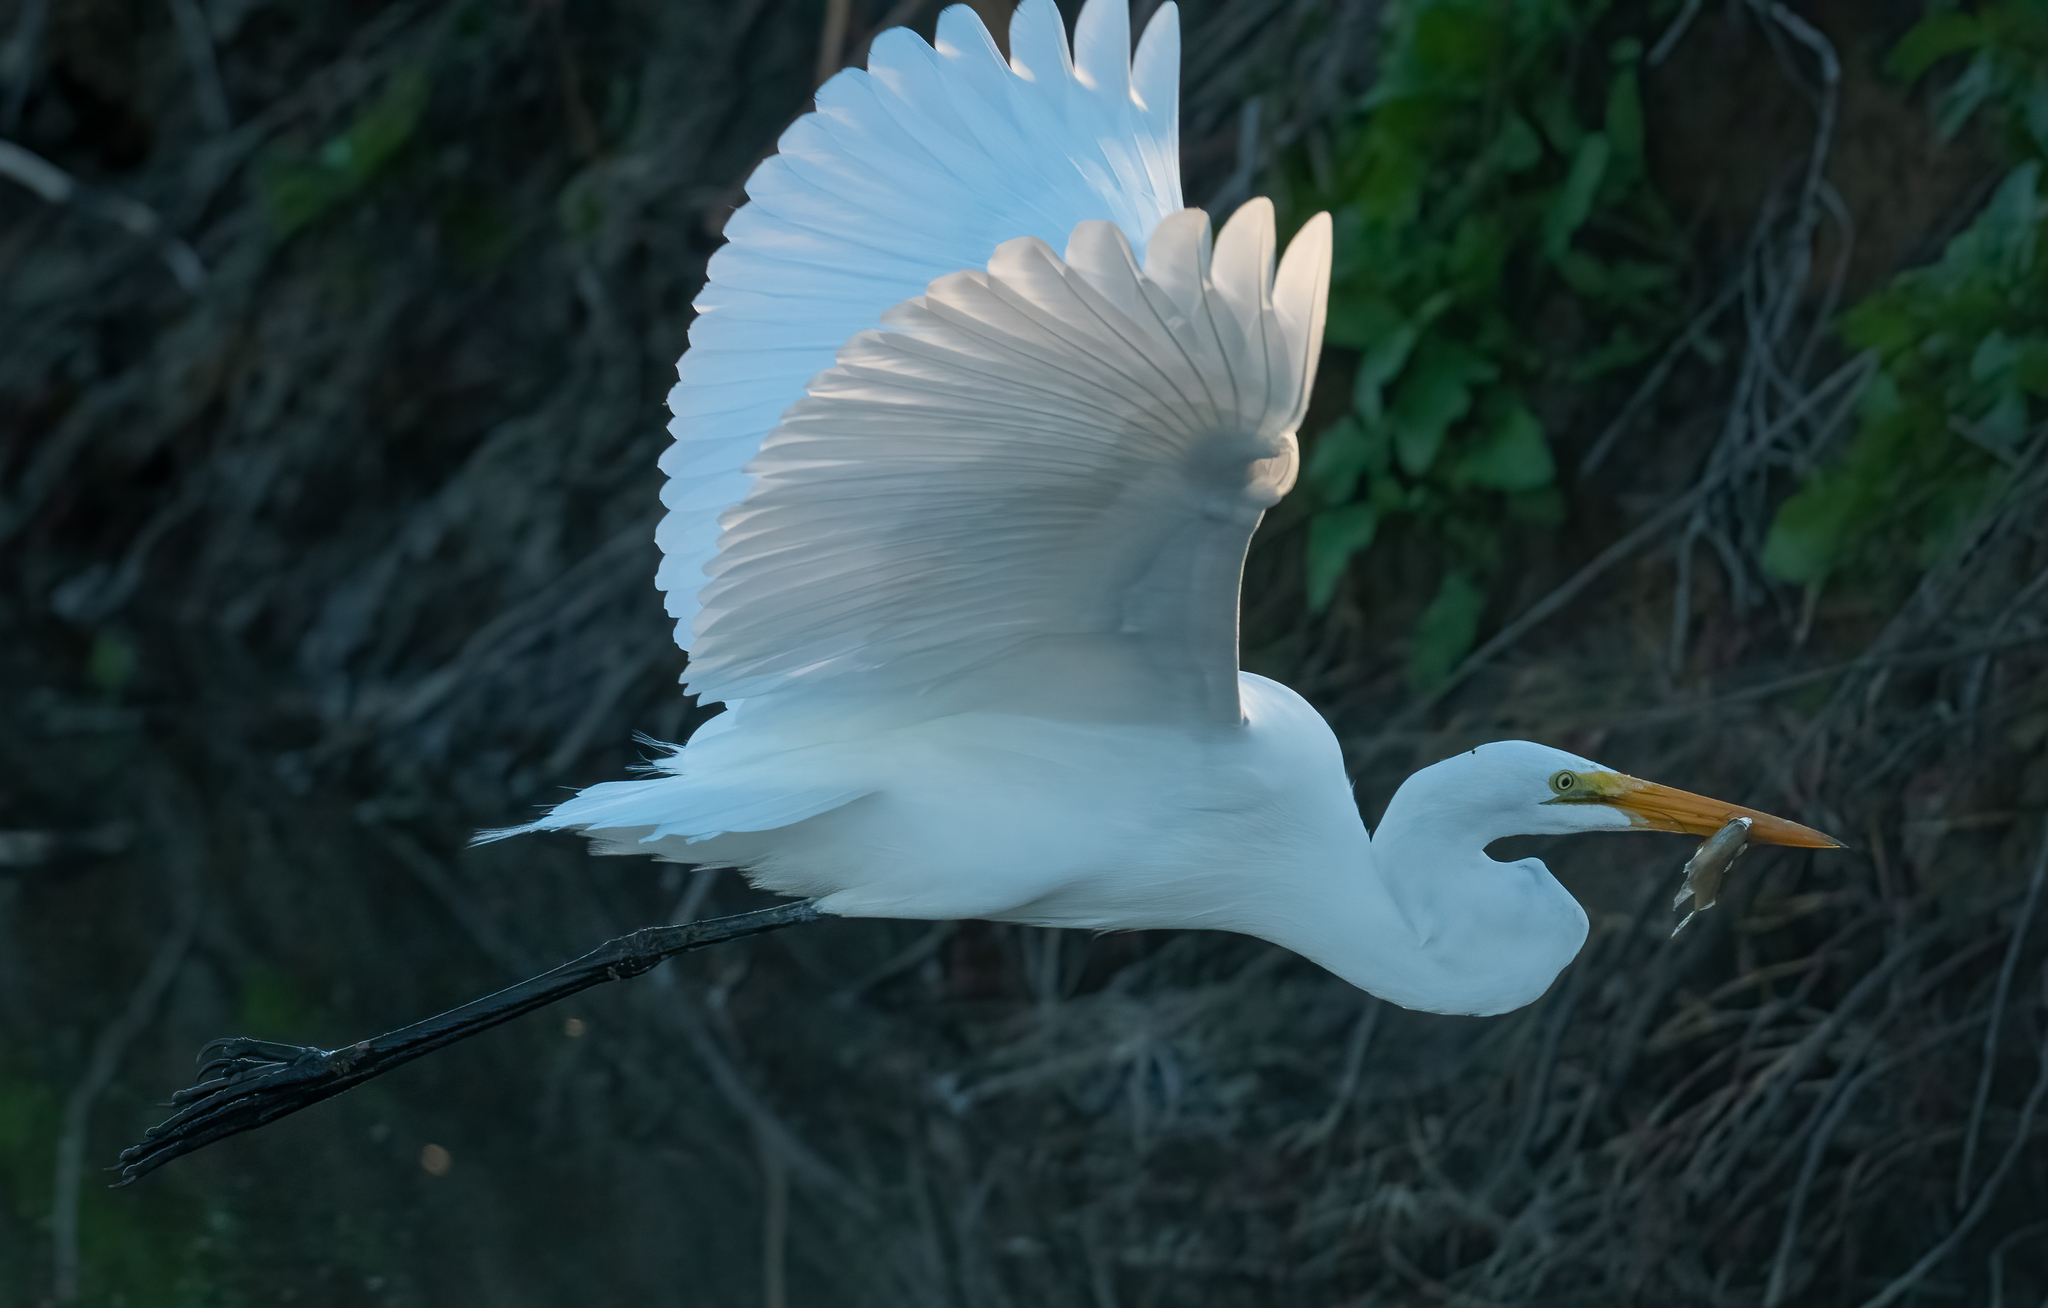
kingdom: Animalia
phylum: Chordata
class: Aves
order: Pelecaniformes
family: Ardeidae
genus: Ardea
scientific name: Ardea alba
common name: Great egret
